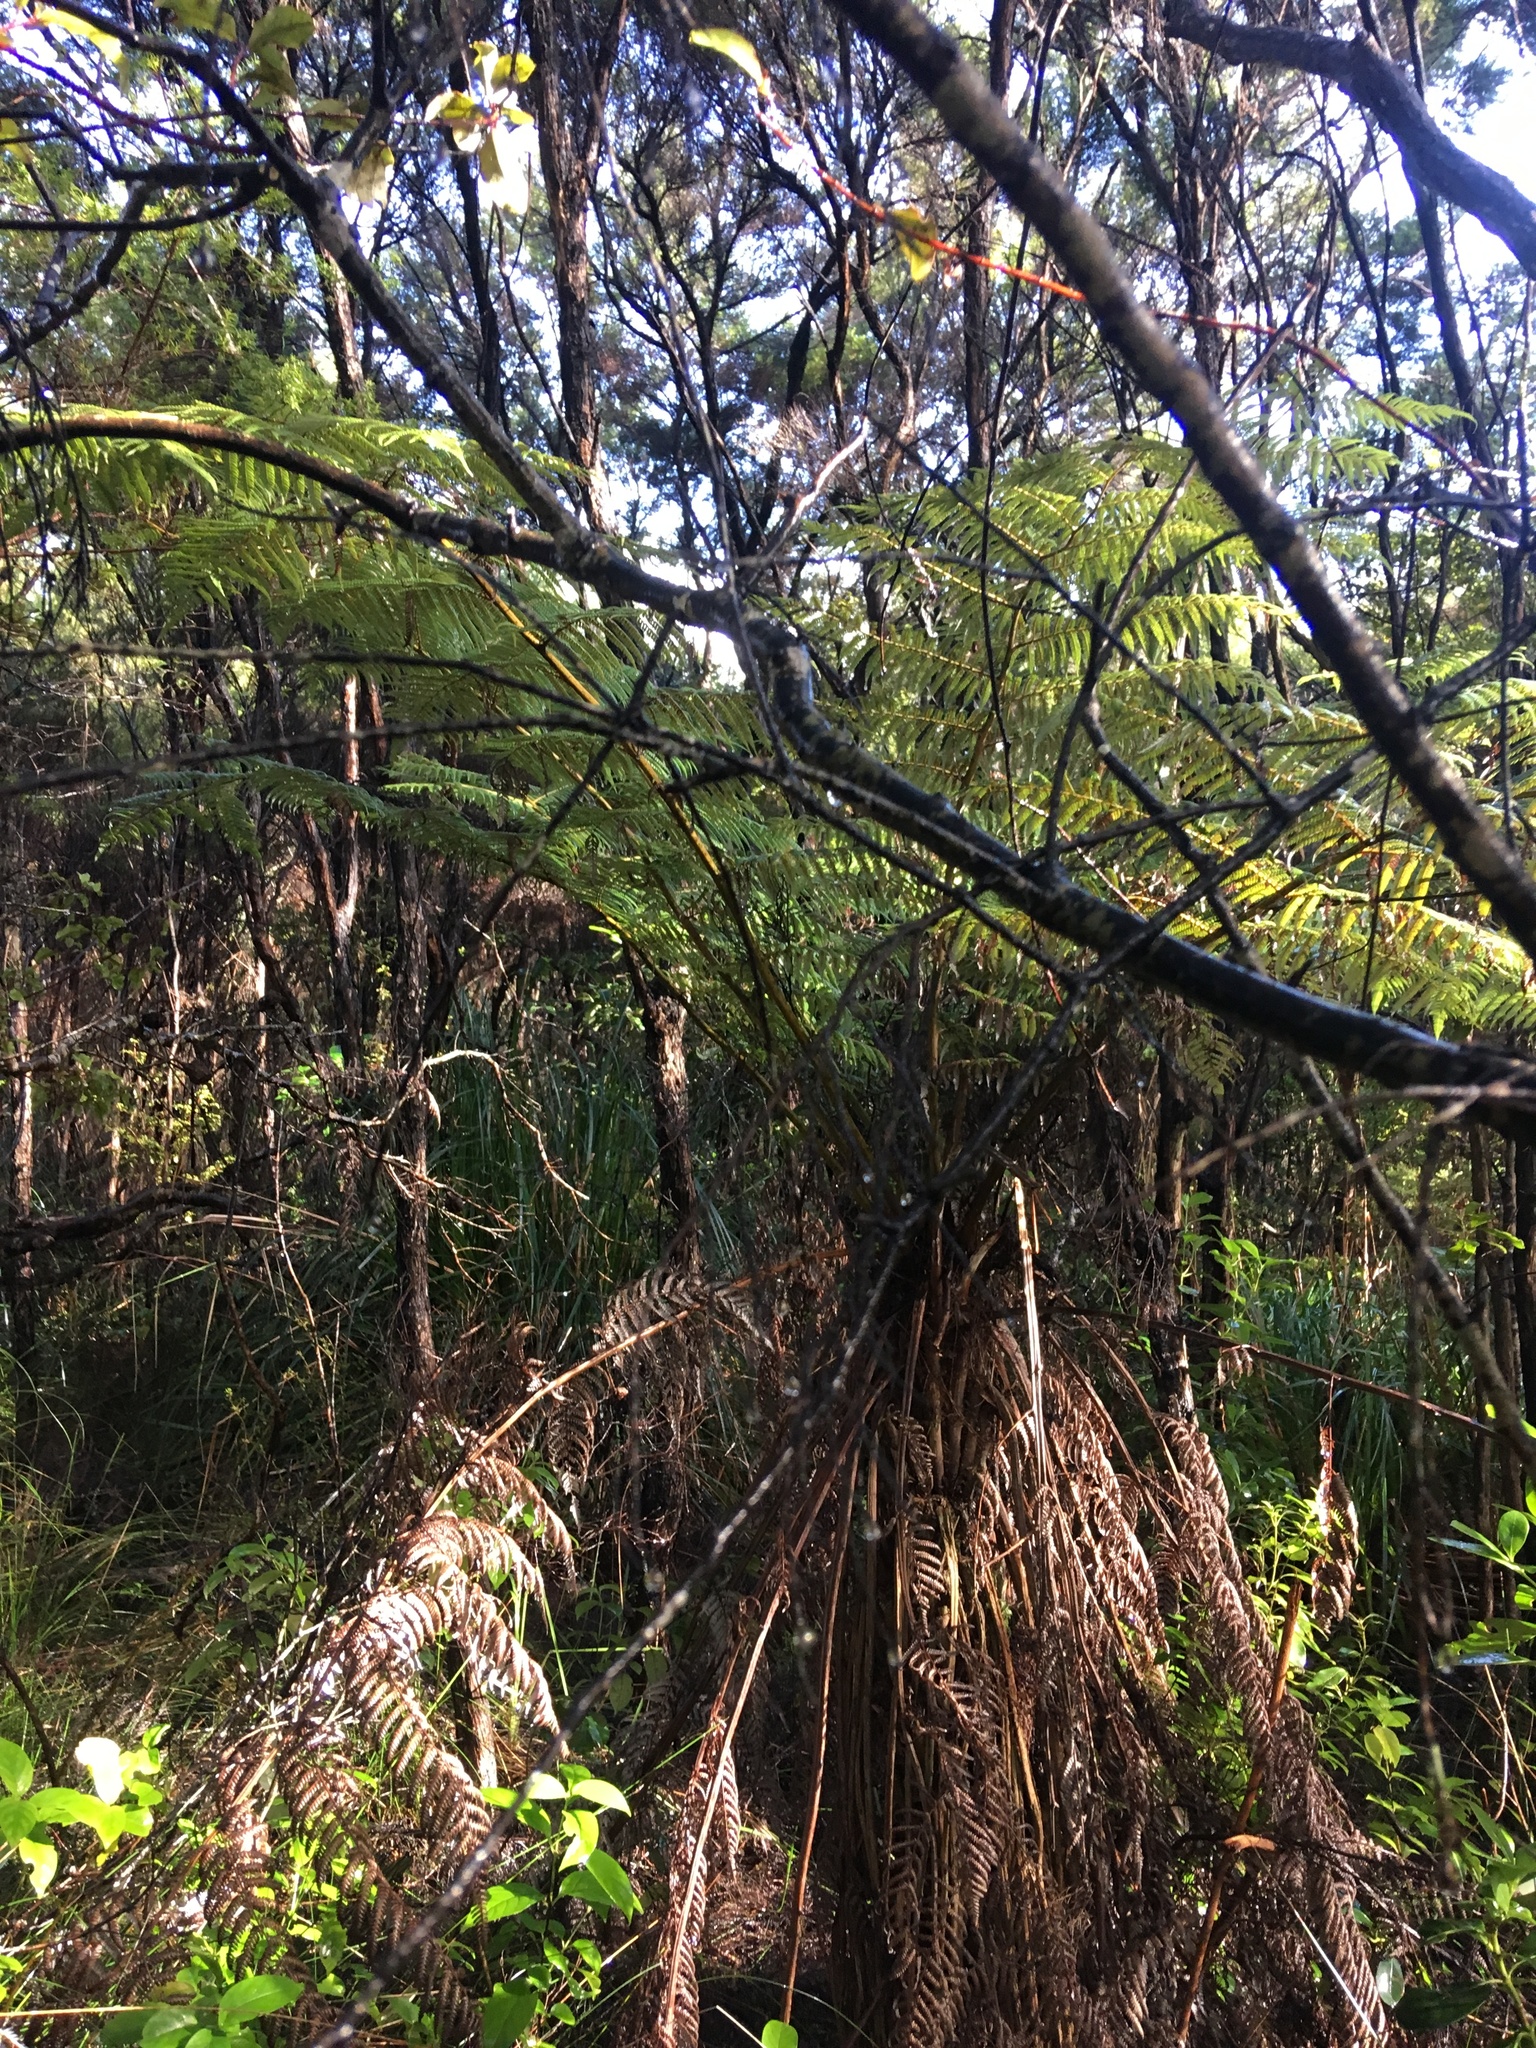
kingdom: Plantae
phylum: Tracheophyta
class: Polypodiopsida
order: Cyatheales
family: Cyatheaceae
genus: Alsophila
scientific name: Alsophila dealbata
